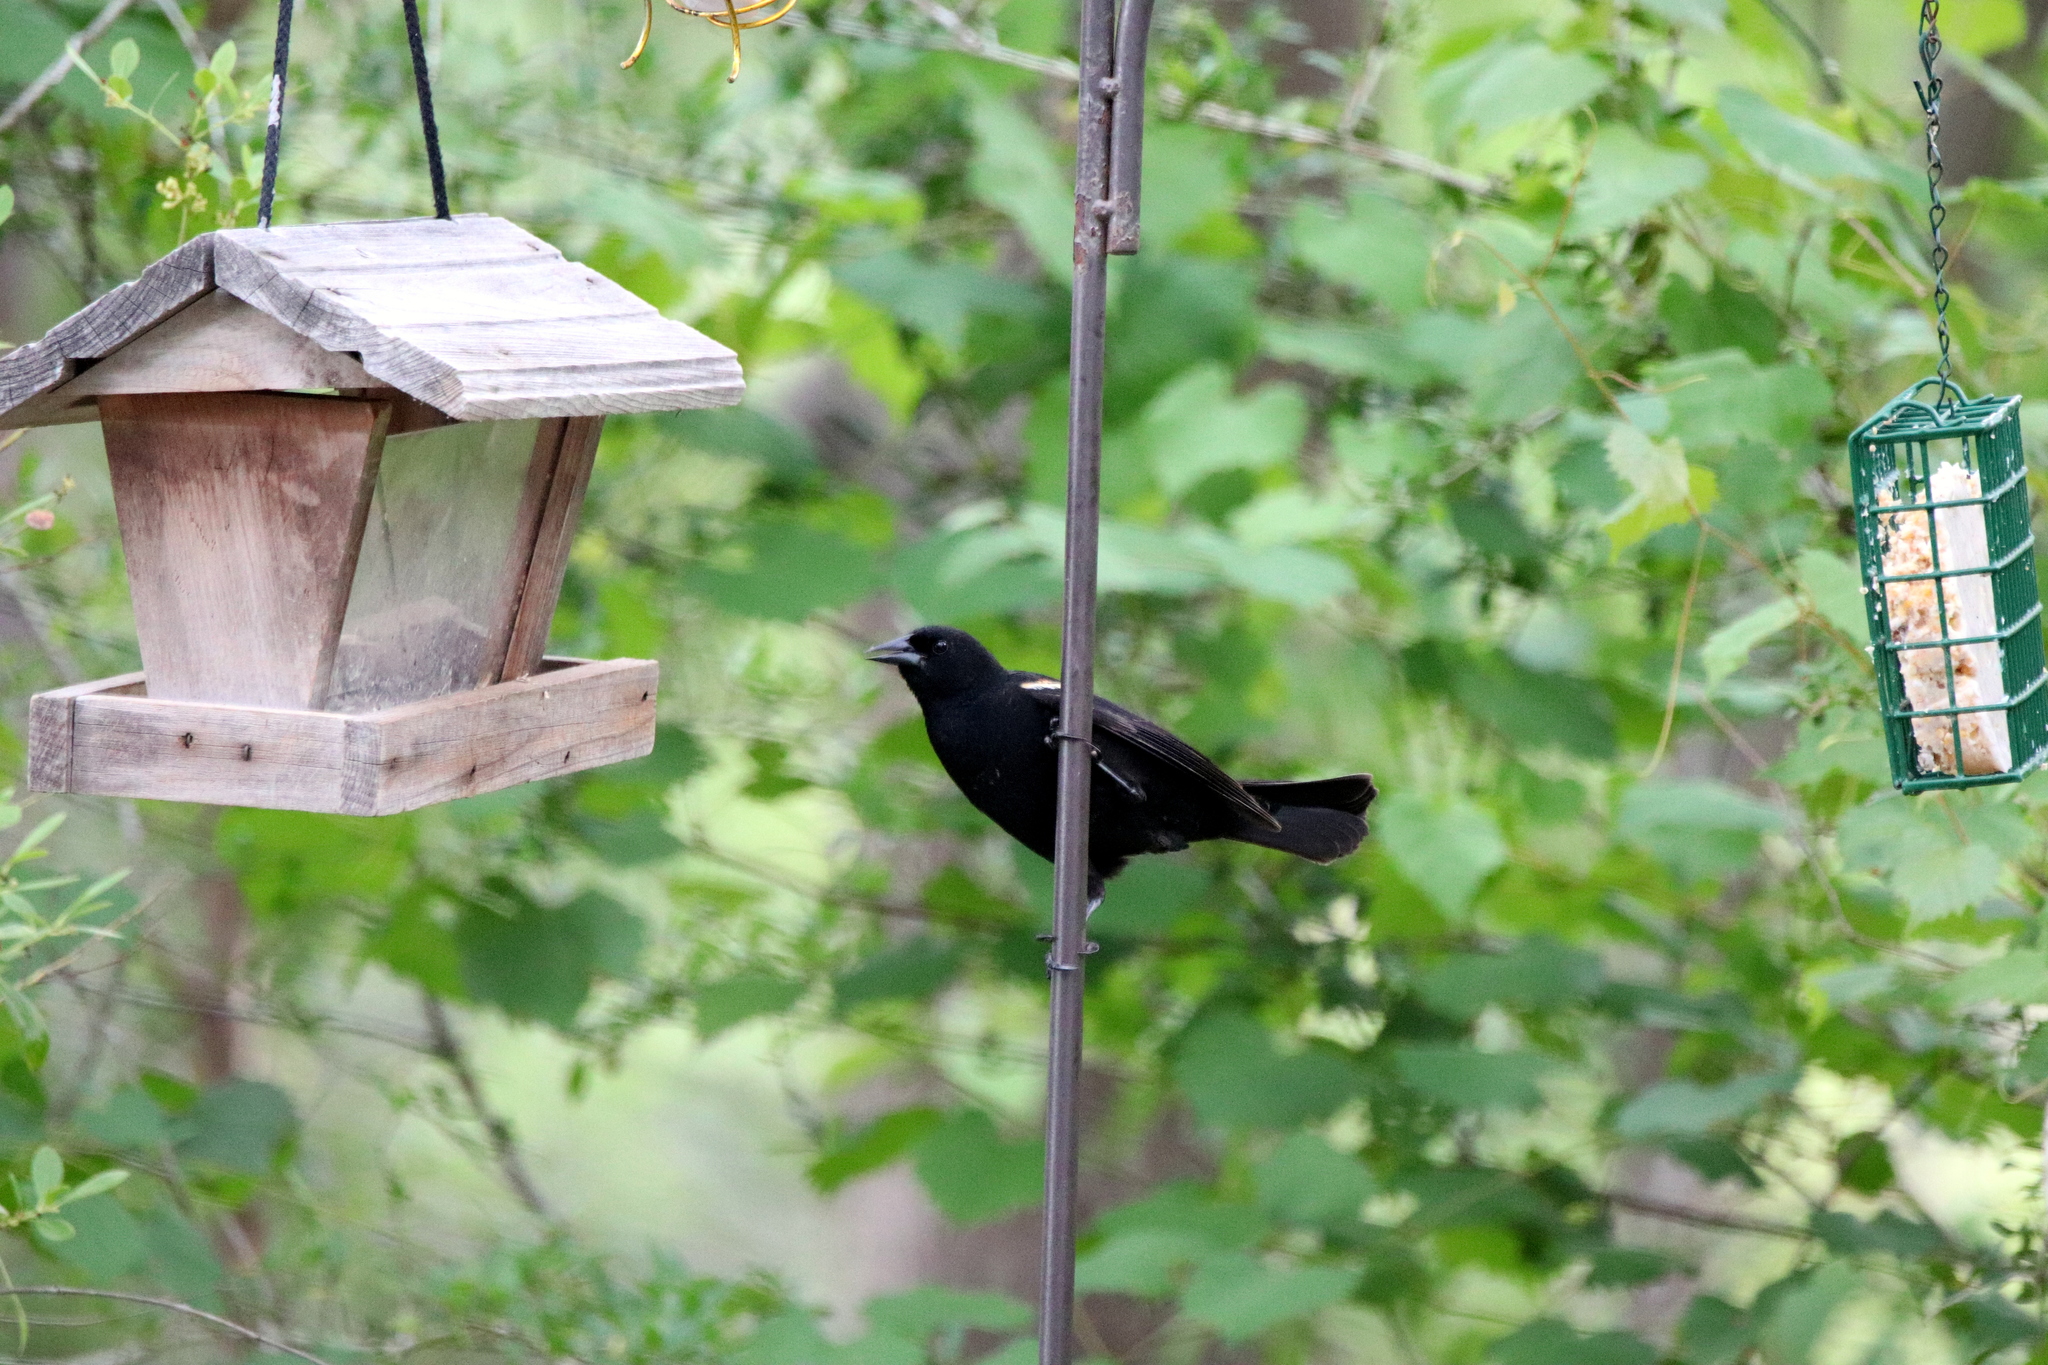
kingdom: Animalia
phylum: Chordata
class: Aves
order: Passeriformes
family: Icteridae
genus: Agelaius
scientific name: Agelaius phoeniceus
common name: Red-winged blackbird
